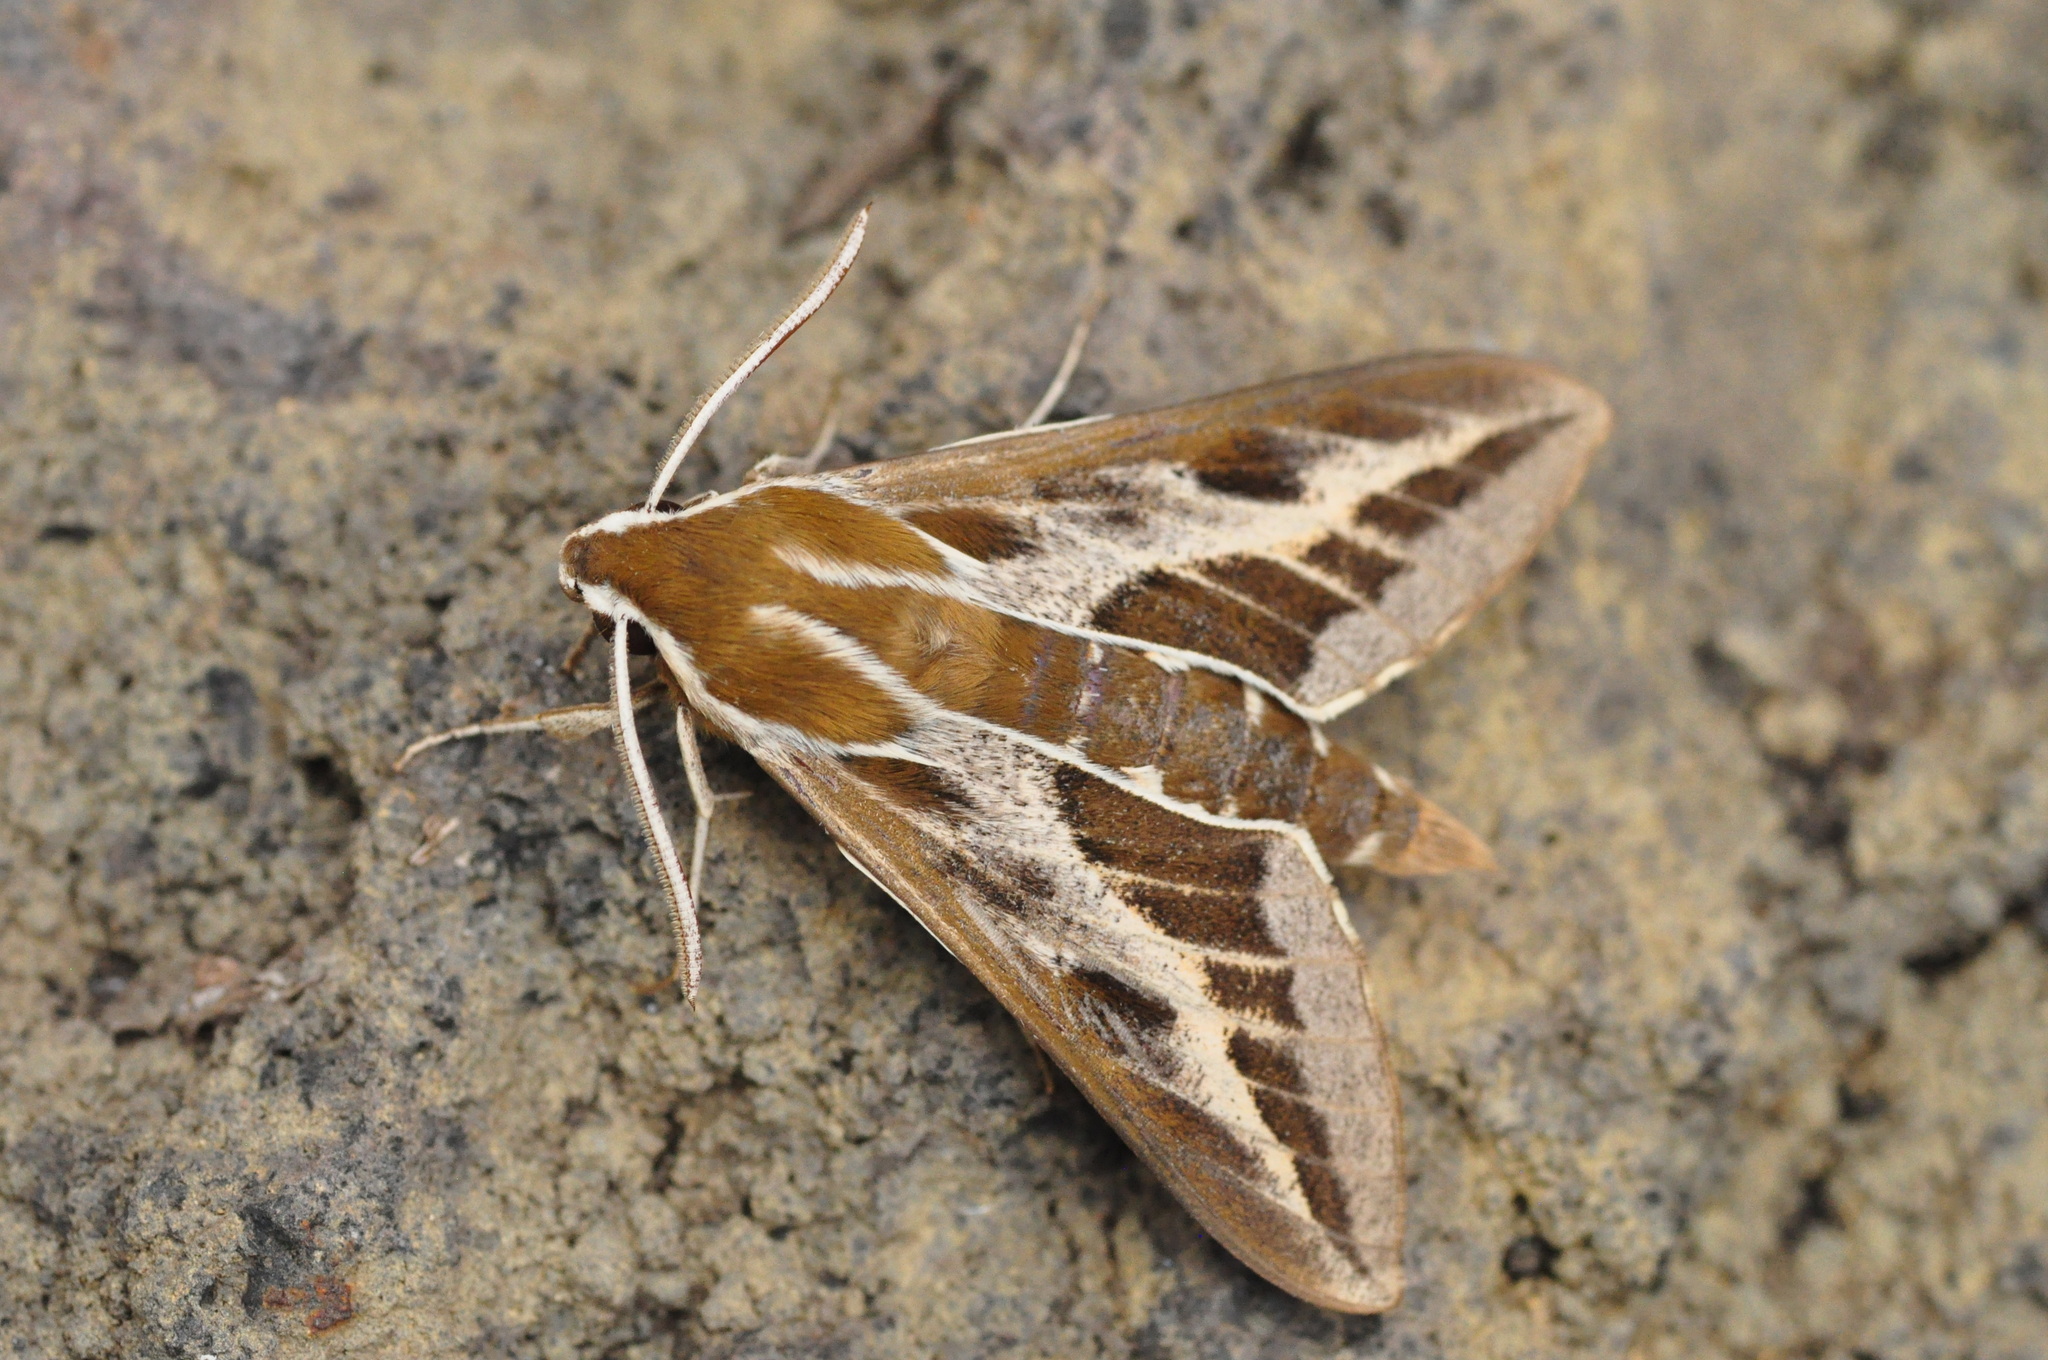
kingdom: Animalia
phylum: Arthropoda
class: Insecta
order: Lepidoptera
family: Sphingidae
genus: Hyles
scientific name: Hyles tithymali
